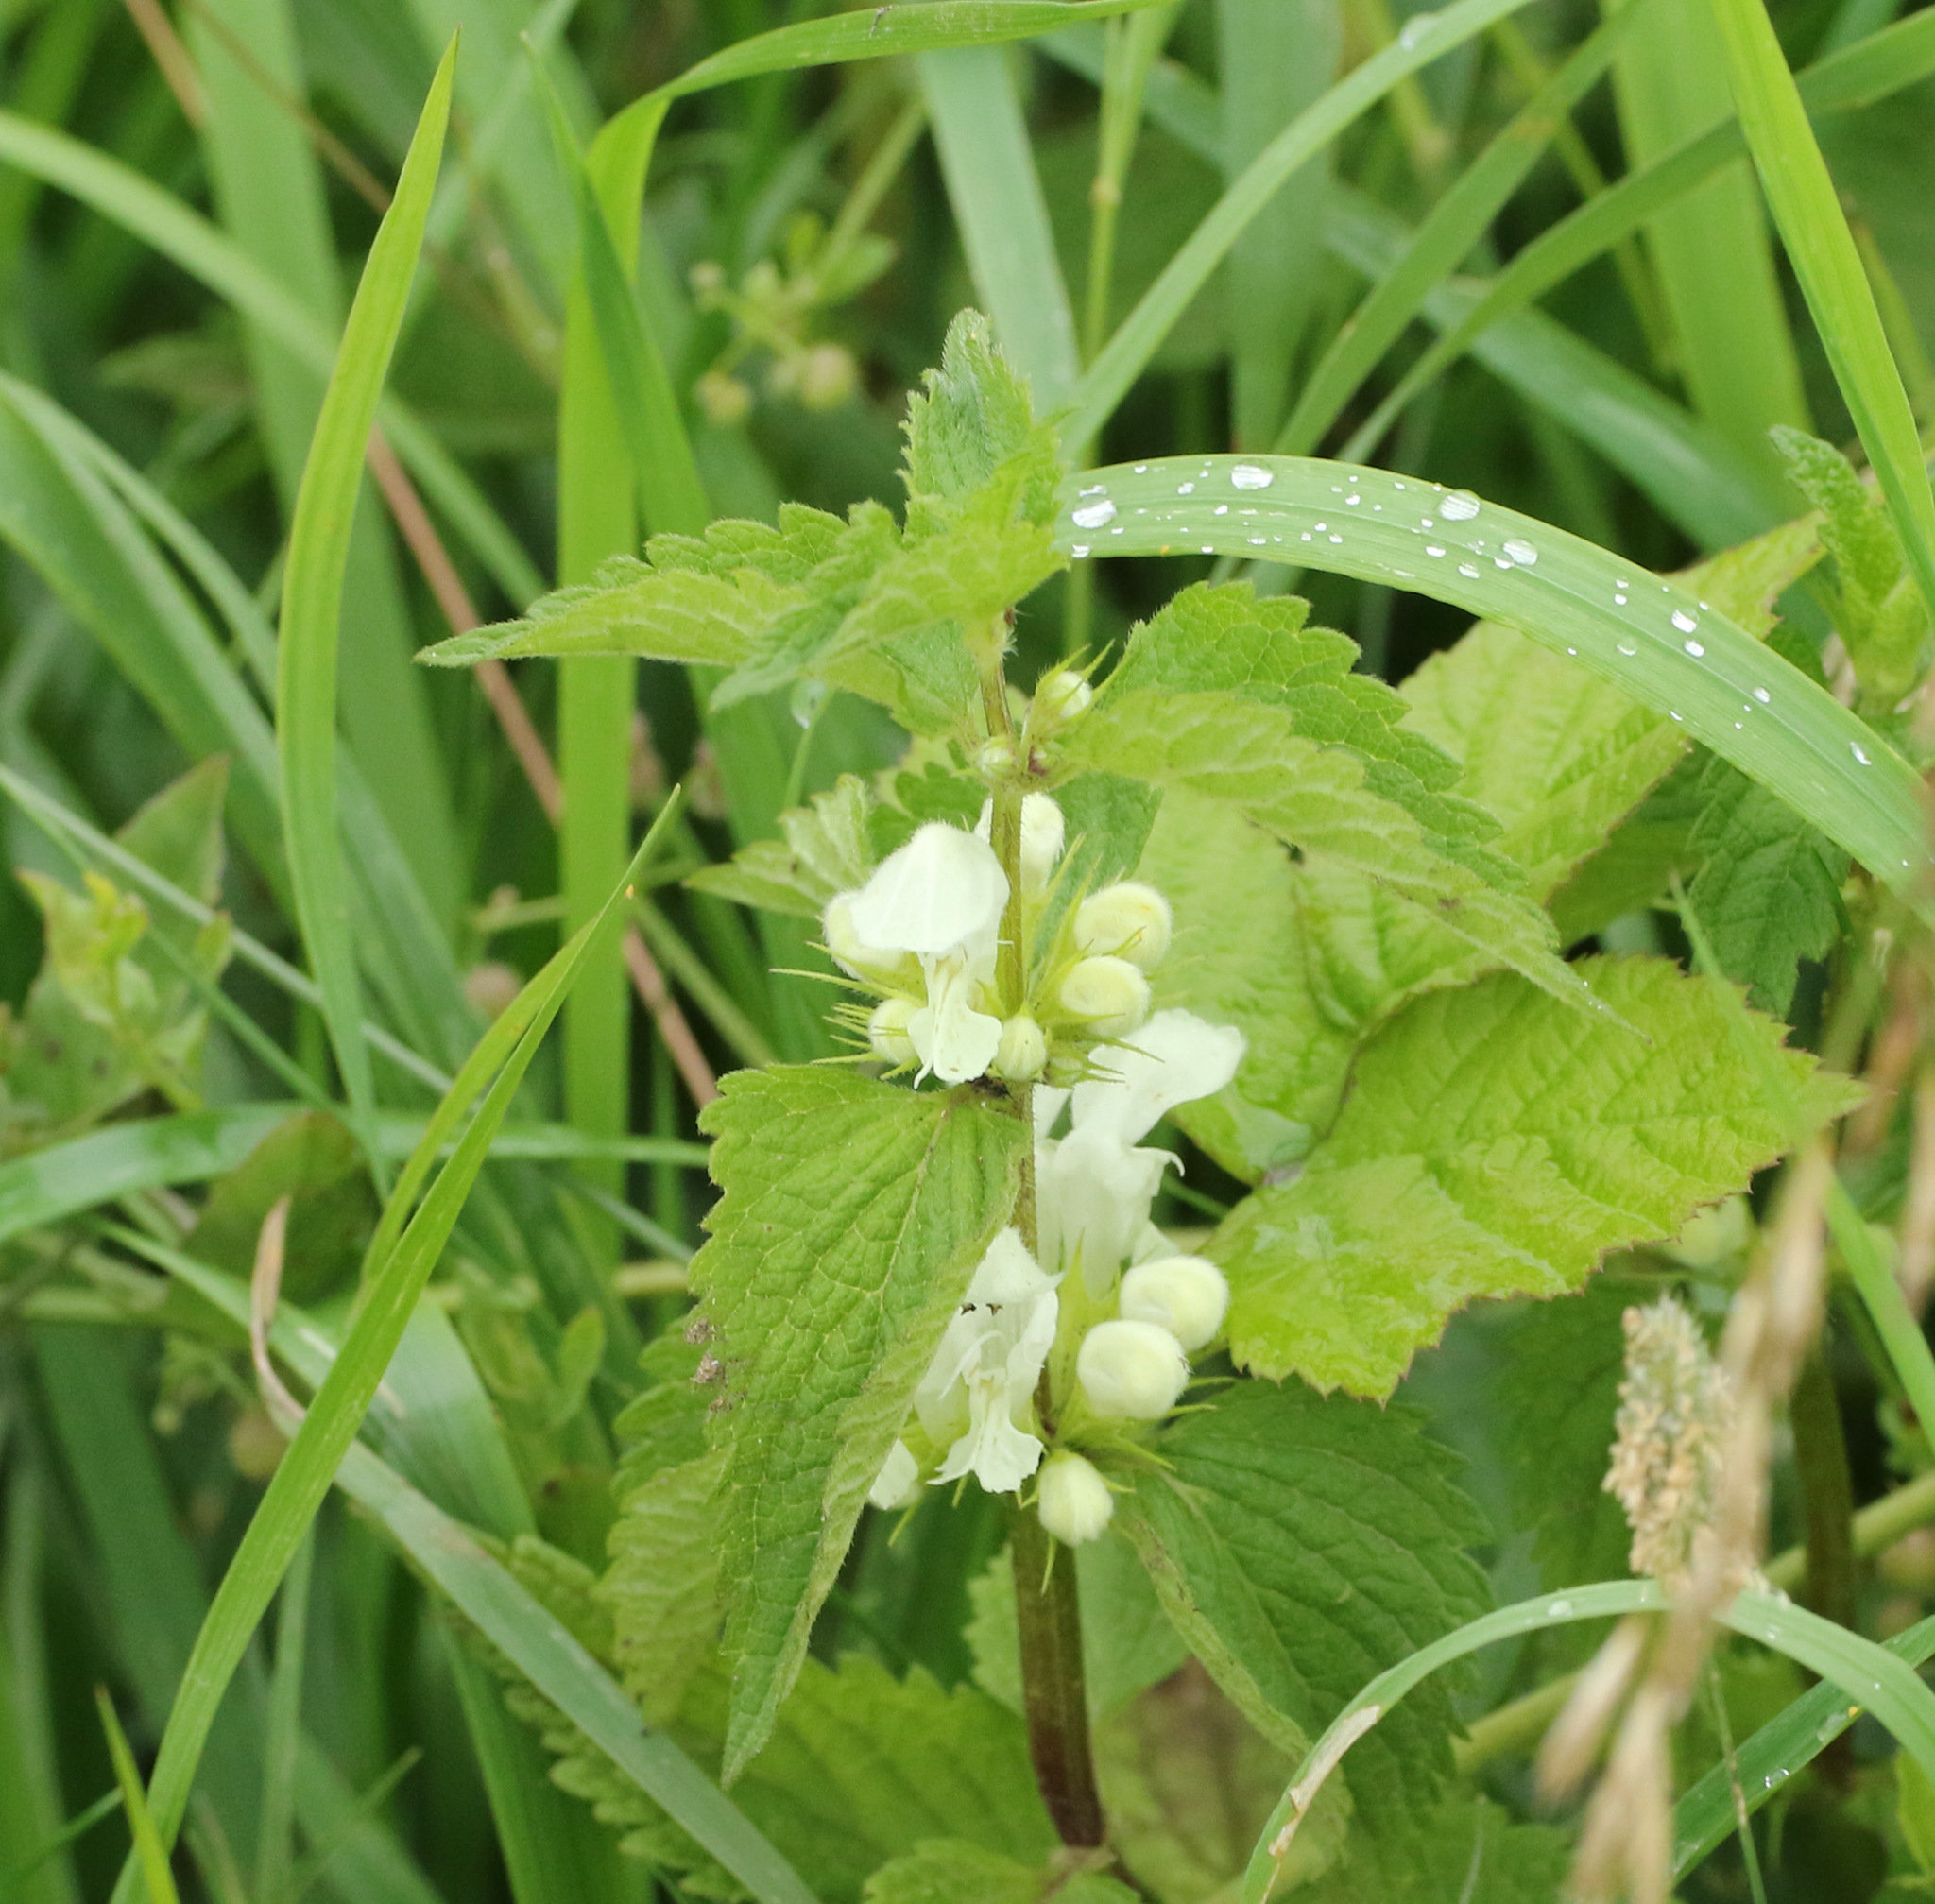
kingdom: Plantae
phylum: Tracheophyta
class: Magnoliopsida
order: Lamiales
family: Lamiaceae
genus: Lamium
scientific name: Lamium album
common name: White dead-nettle
